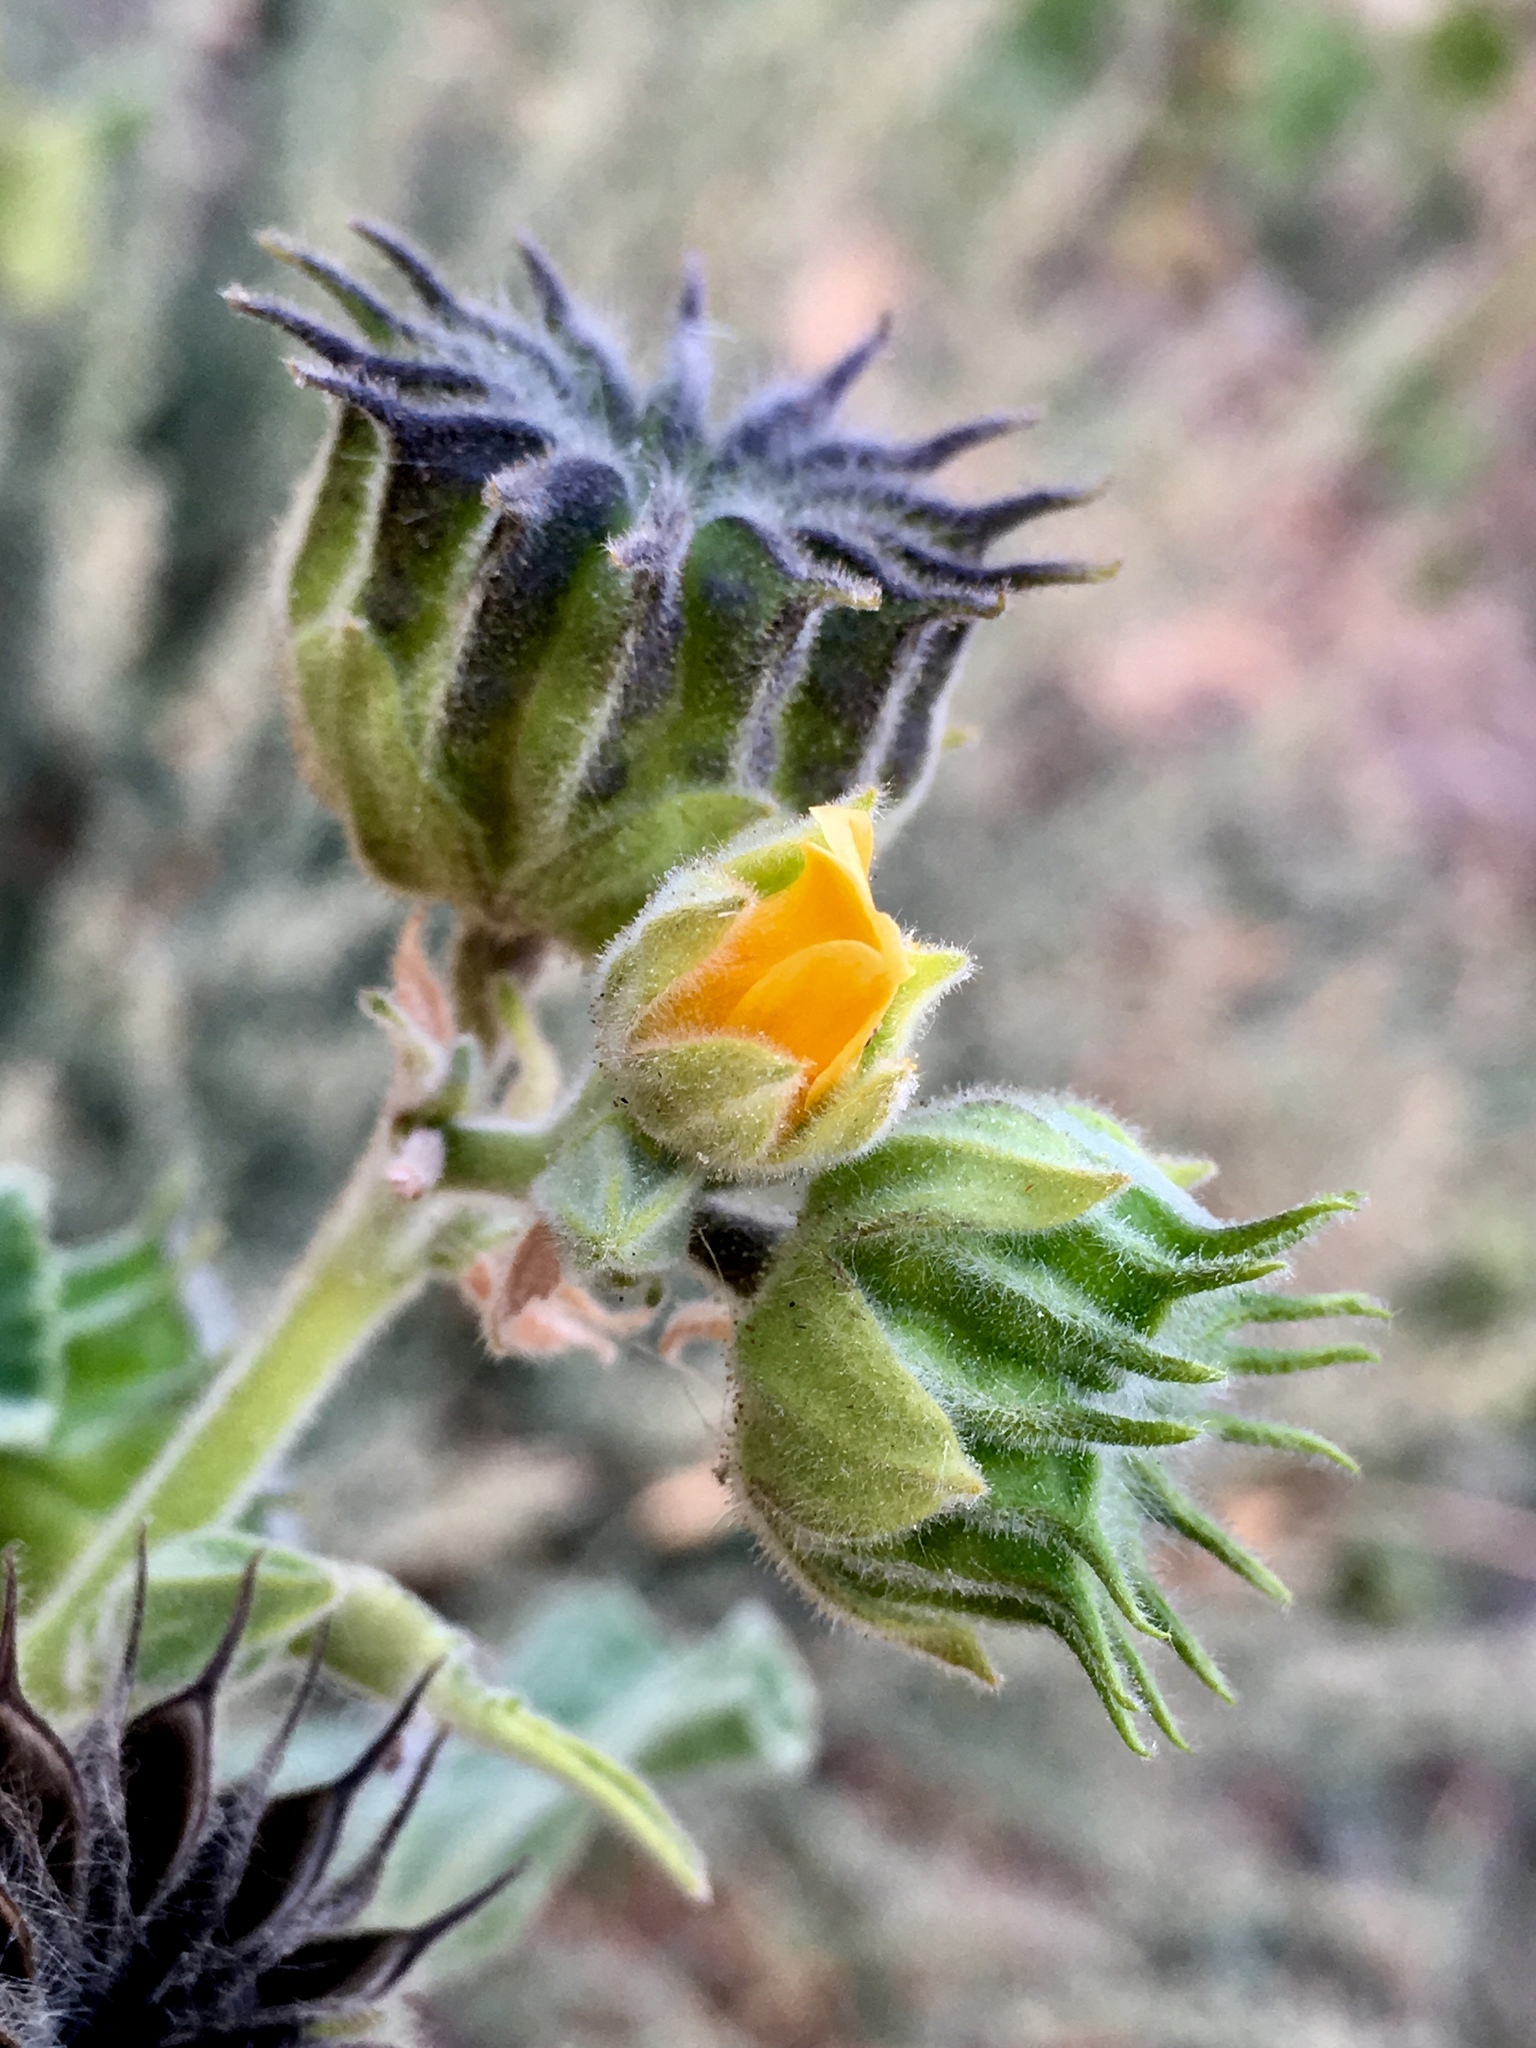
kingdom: Plantae
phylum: Tracheophyta
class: Magnoliopsida
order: Malvales
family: Malvaceae
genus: Abutilon
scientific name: Abutilon theophrasti
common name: Velvetleaf
